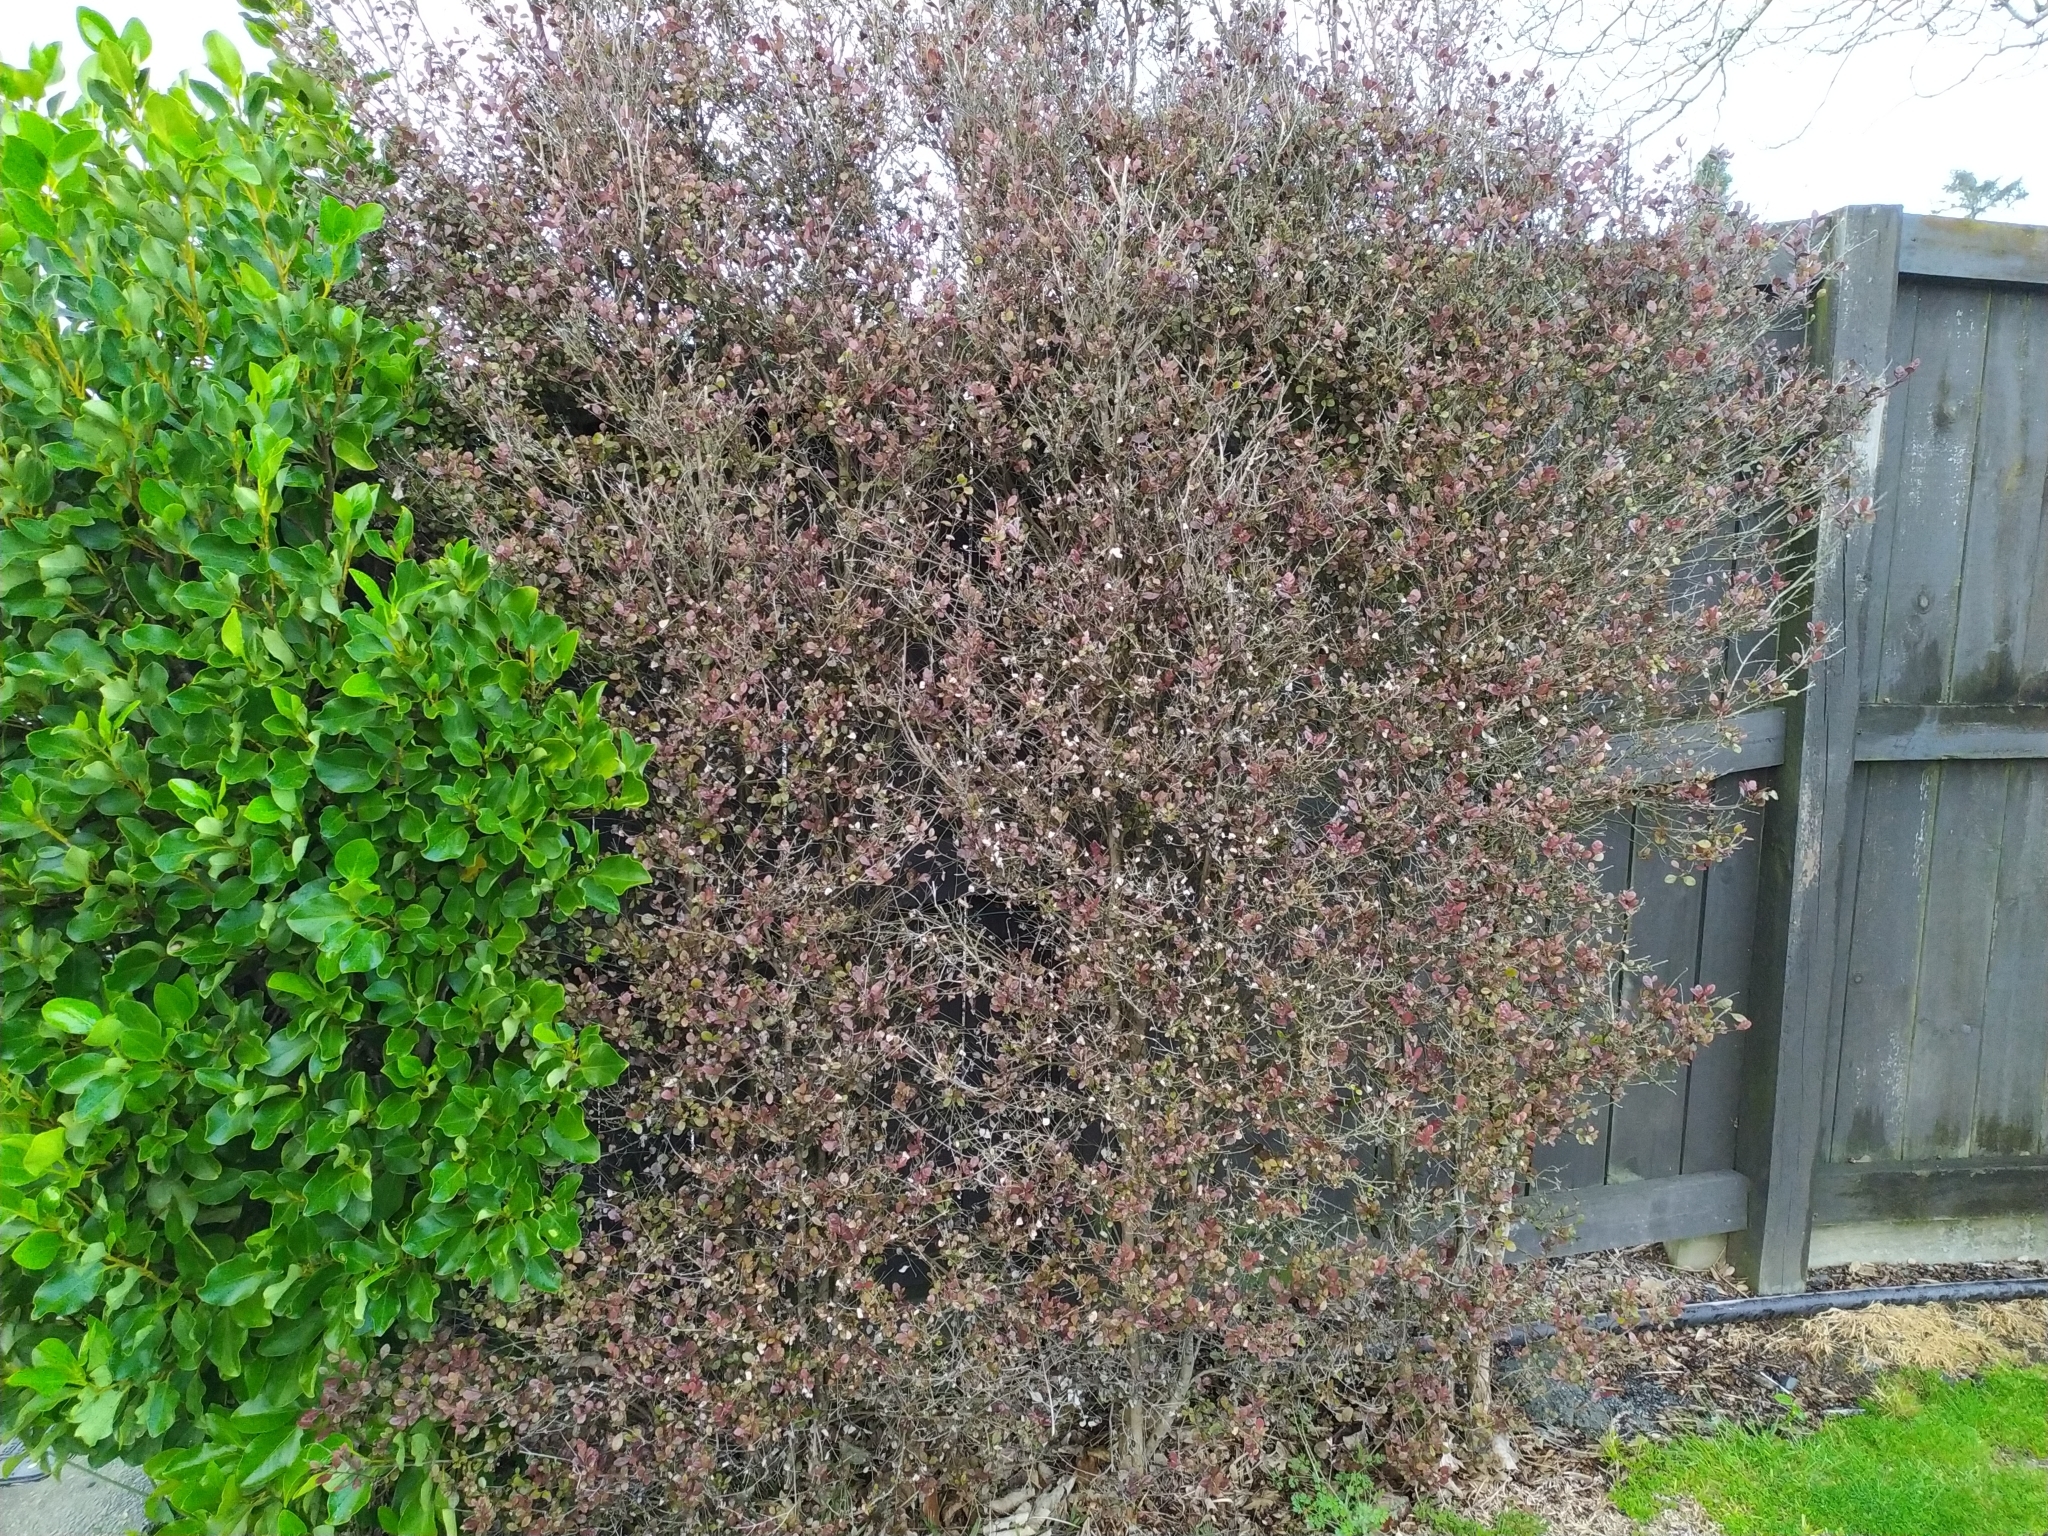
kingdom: Fungi
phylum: Basidiomycota
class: Pucciniomycetes
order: Pucciniales
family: Sphaerophragmiaceae
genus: Austropuccinia
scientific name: Austropuccinia psidii
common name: Myrtle rust
